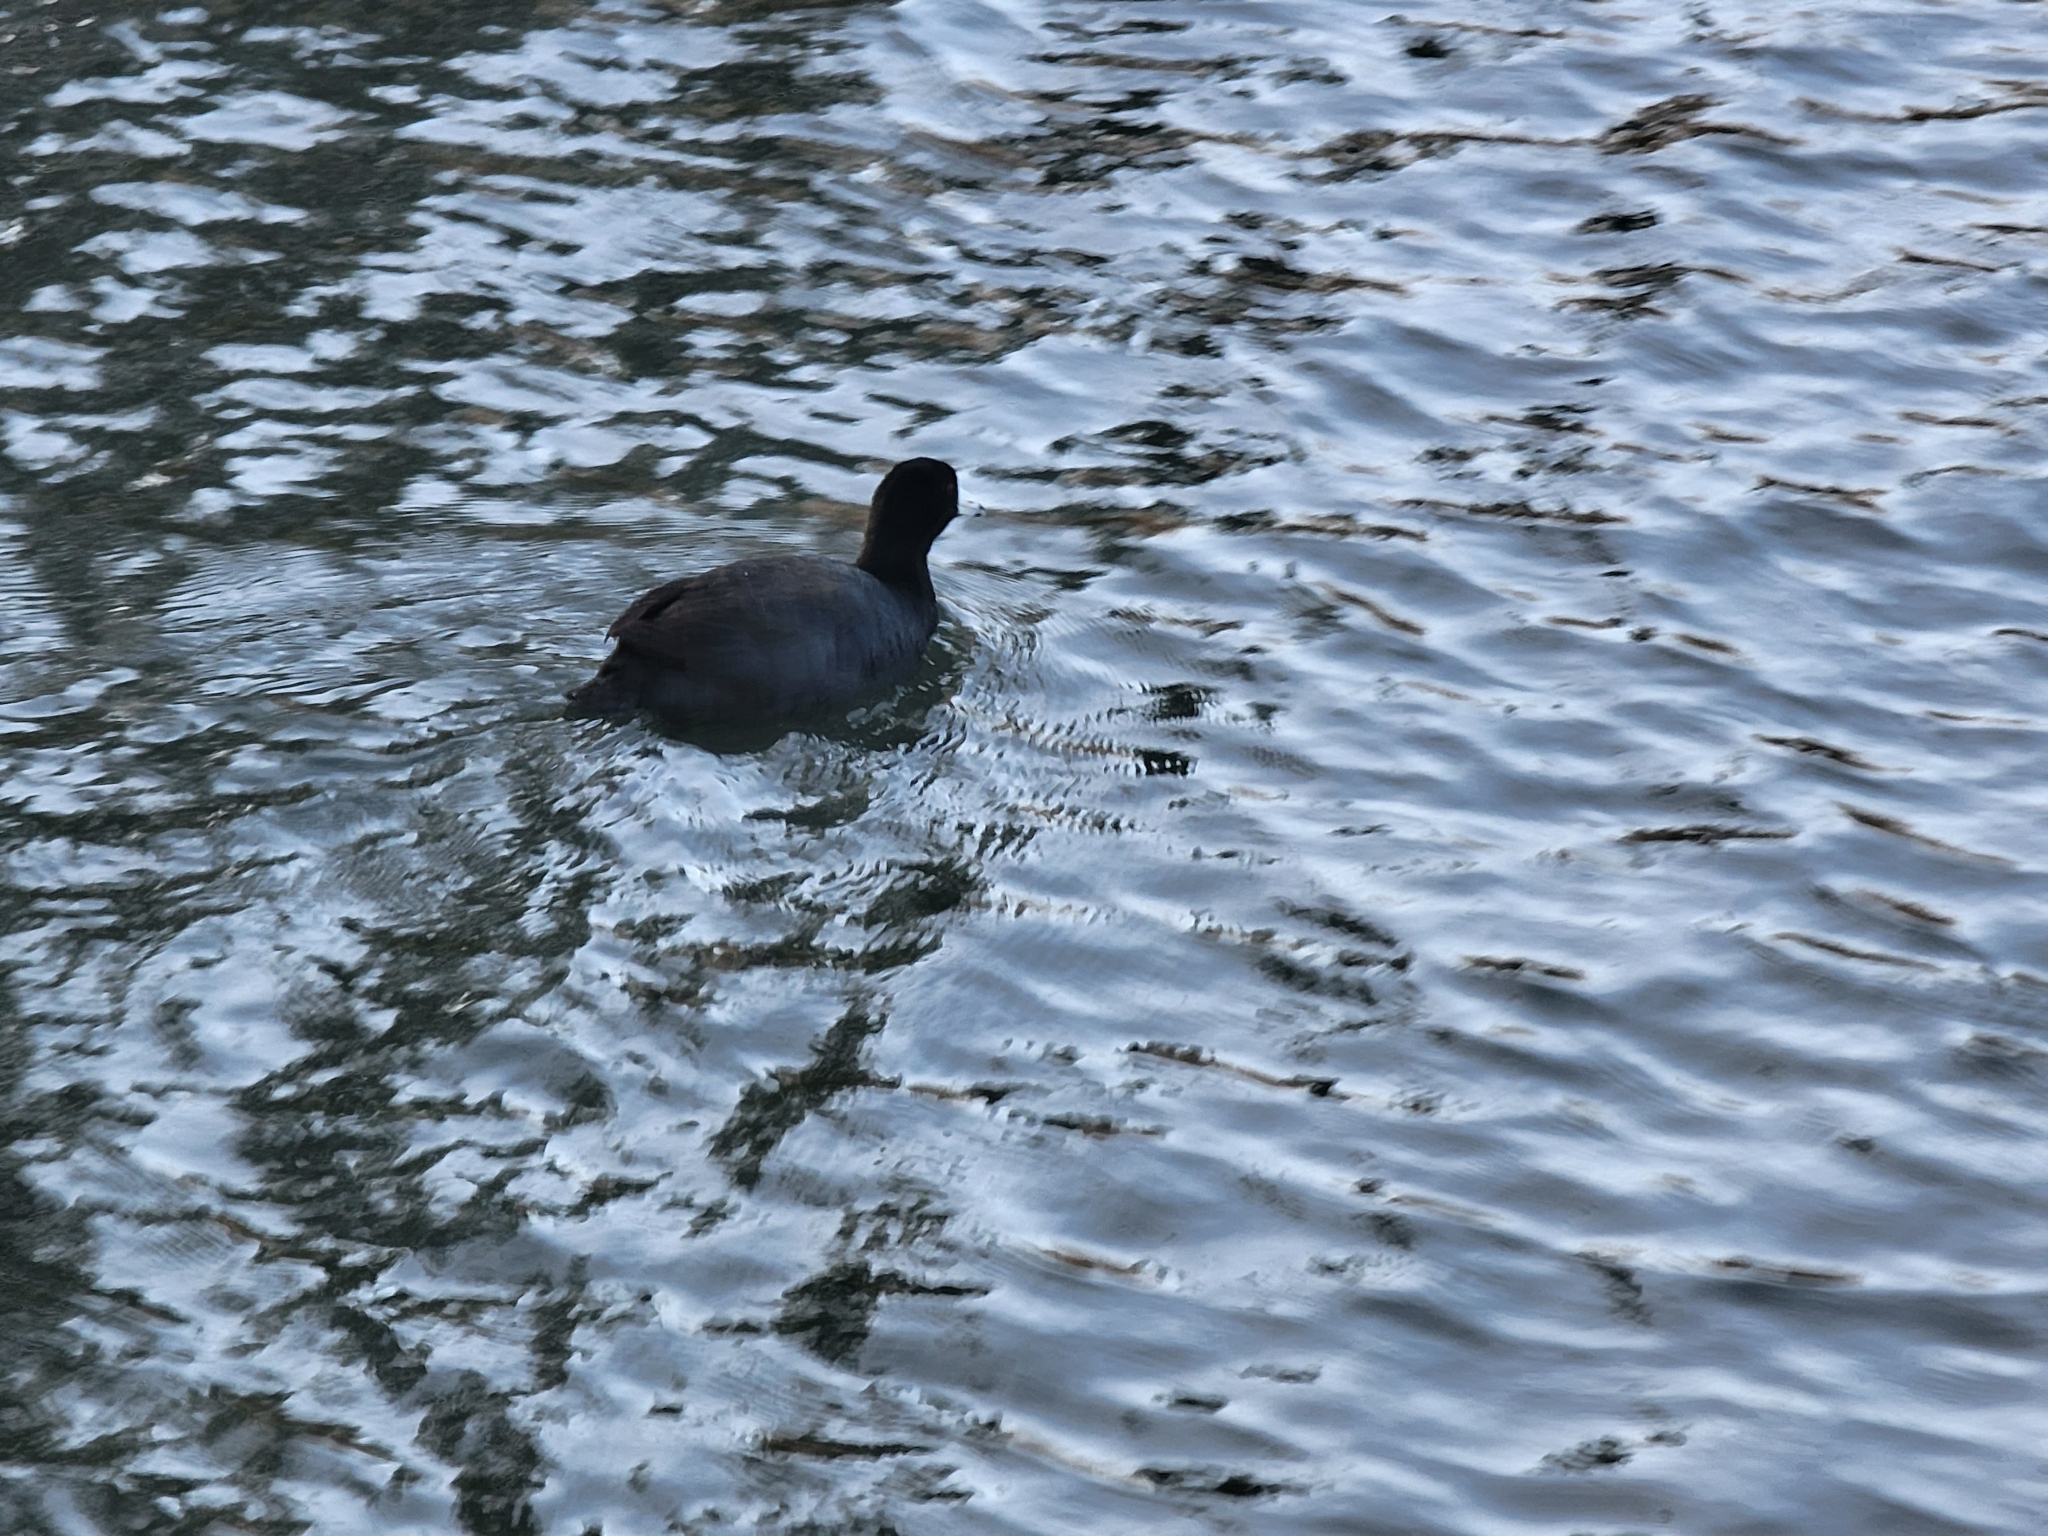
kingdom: Animalia
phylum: Chordata
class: Aves
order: Gruiformes
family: Rallidae
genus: Fulica
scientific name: Fulica americana
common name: American coot
